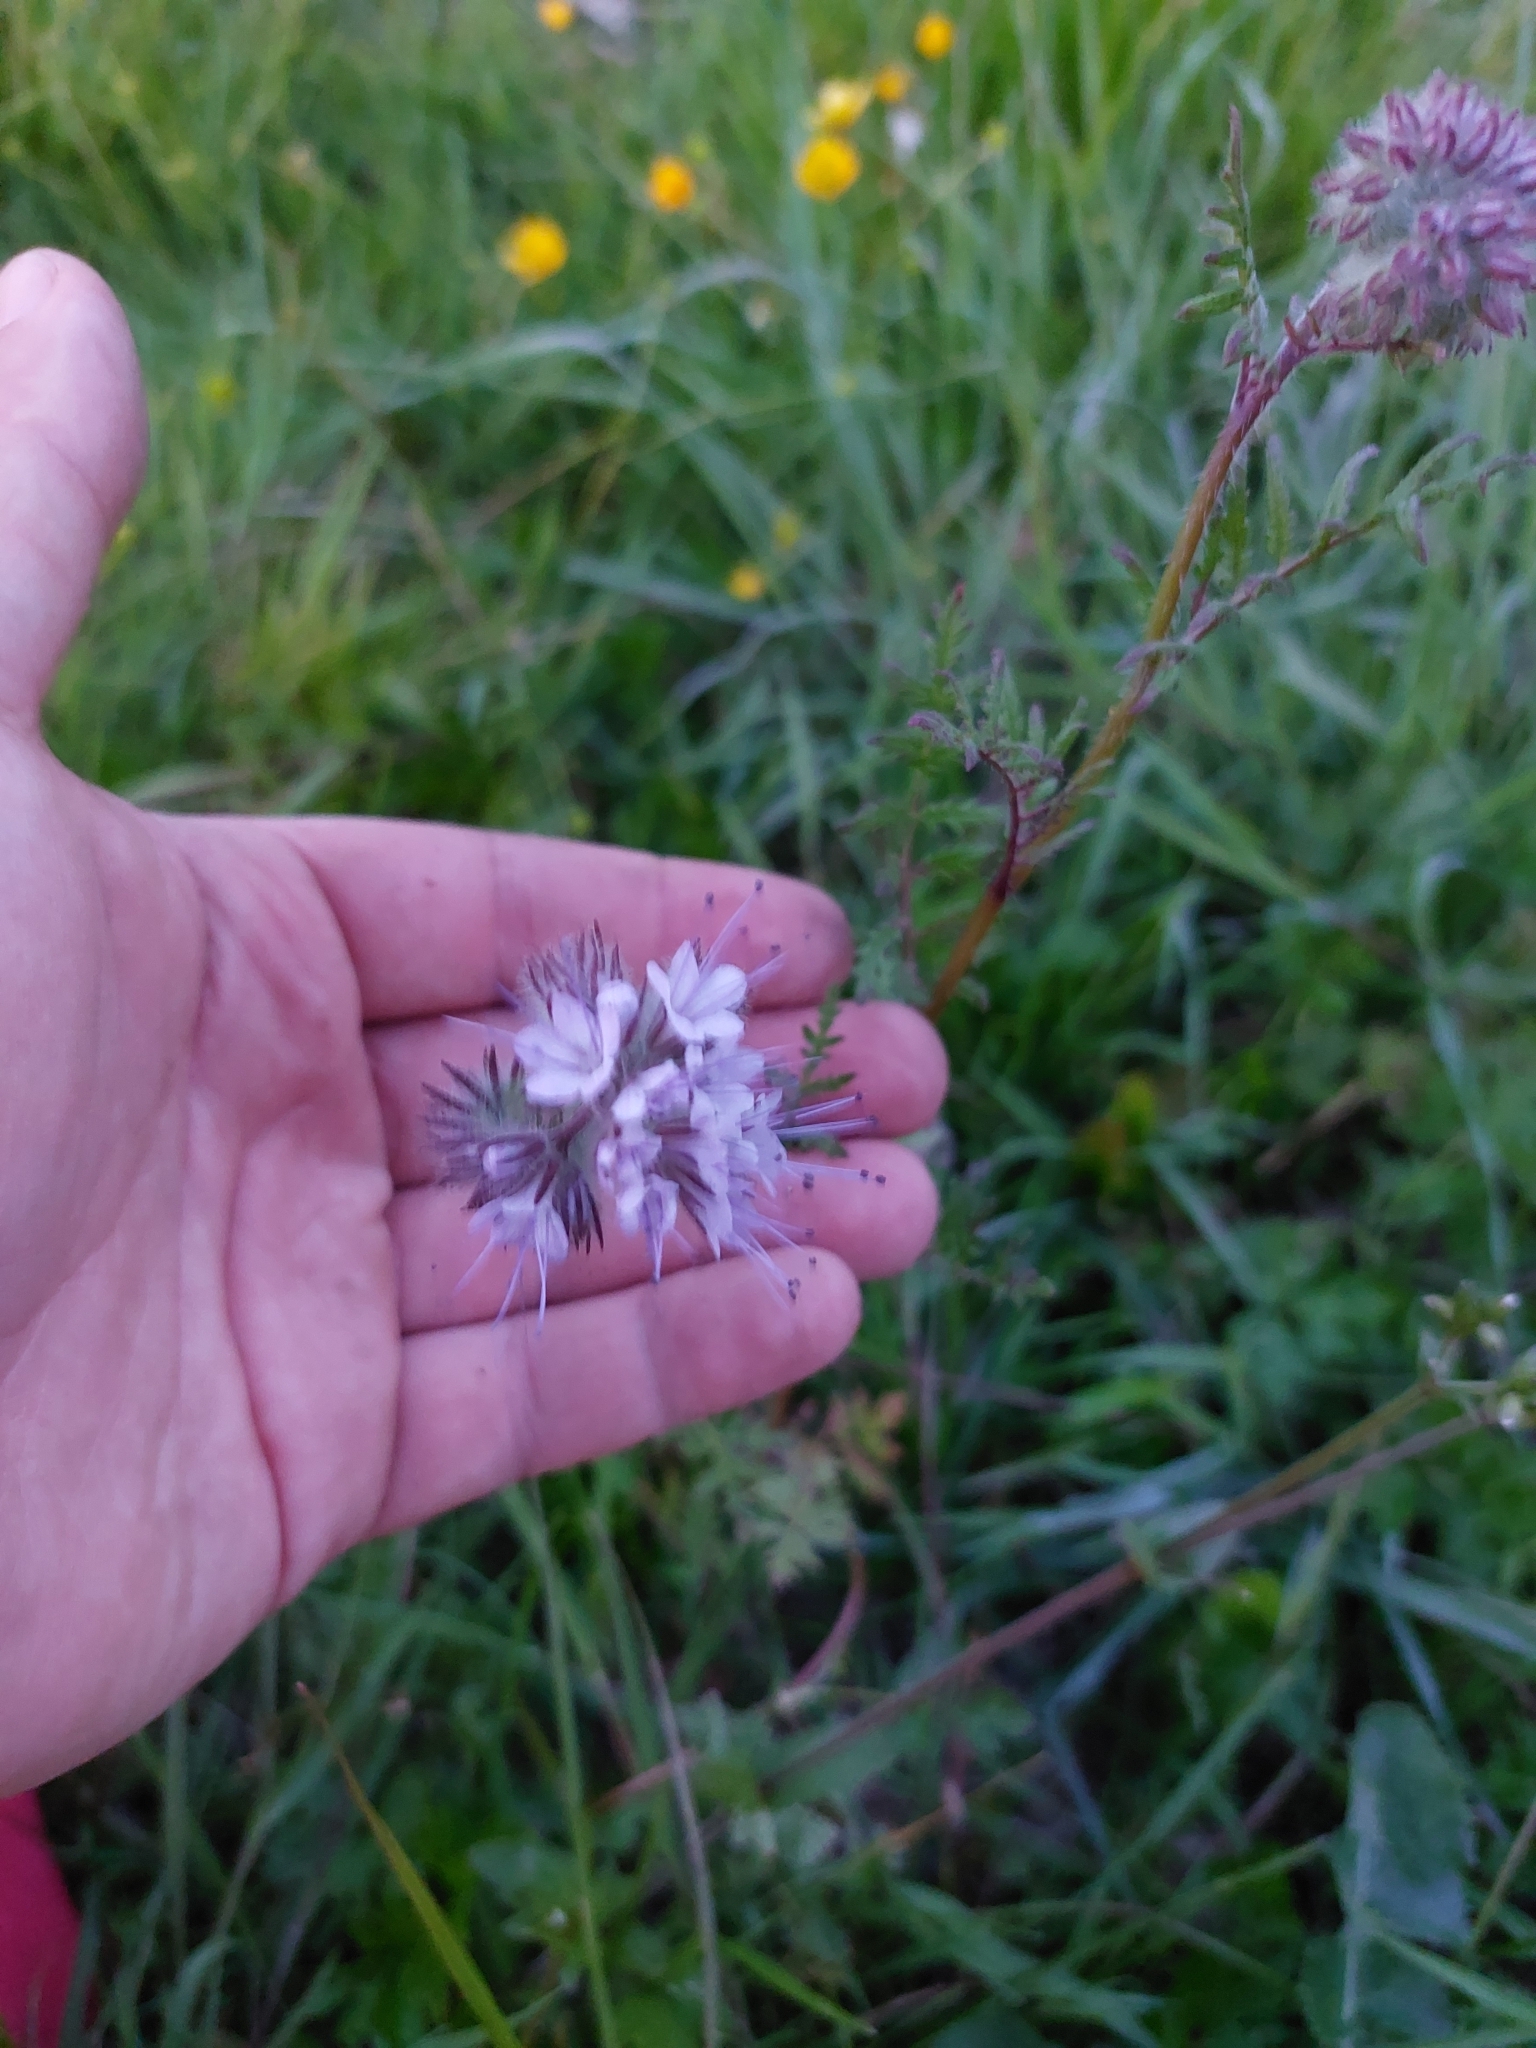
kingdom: Plantae
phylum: Tracheophyta
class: Magnoliopsida
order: Boraginales
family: Hydrophyllaceae
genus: Phacelia
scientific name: Phacelia tanacetifolia
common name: Phacelia
